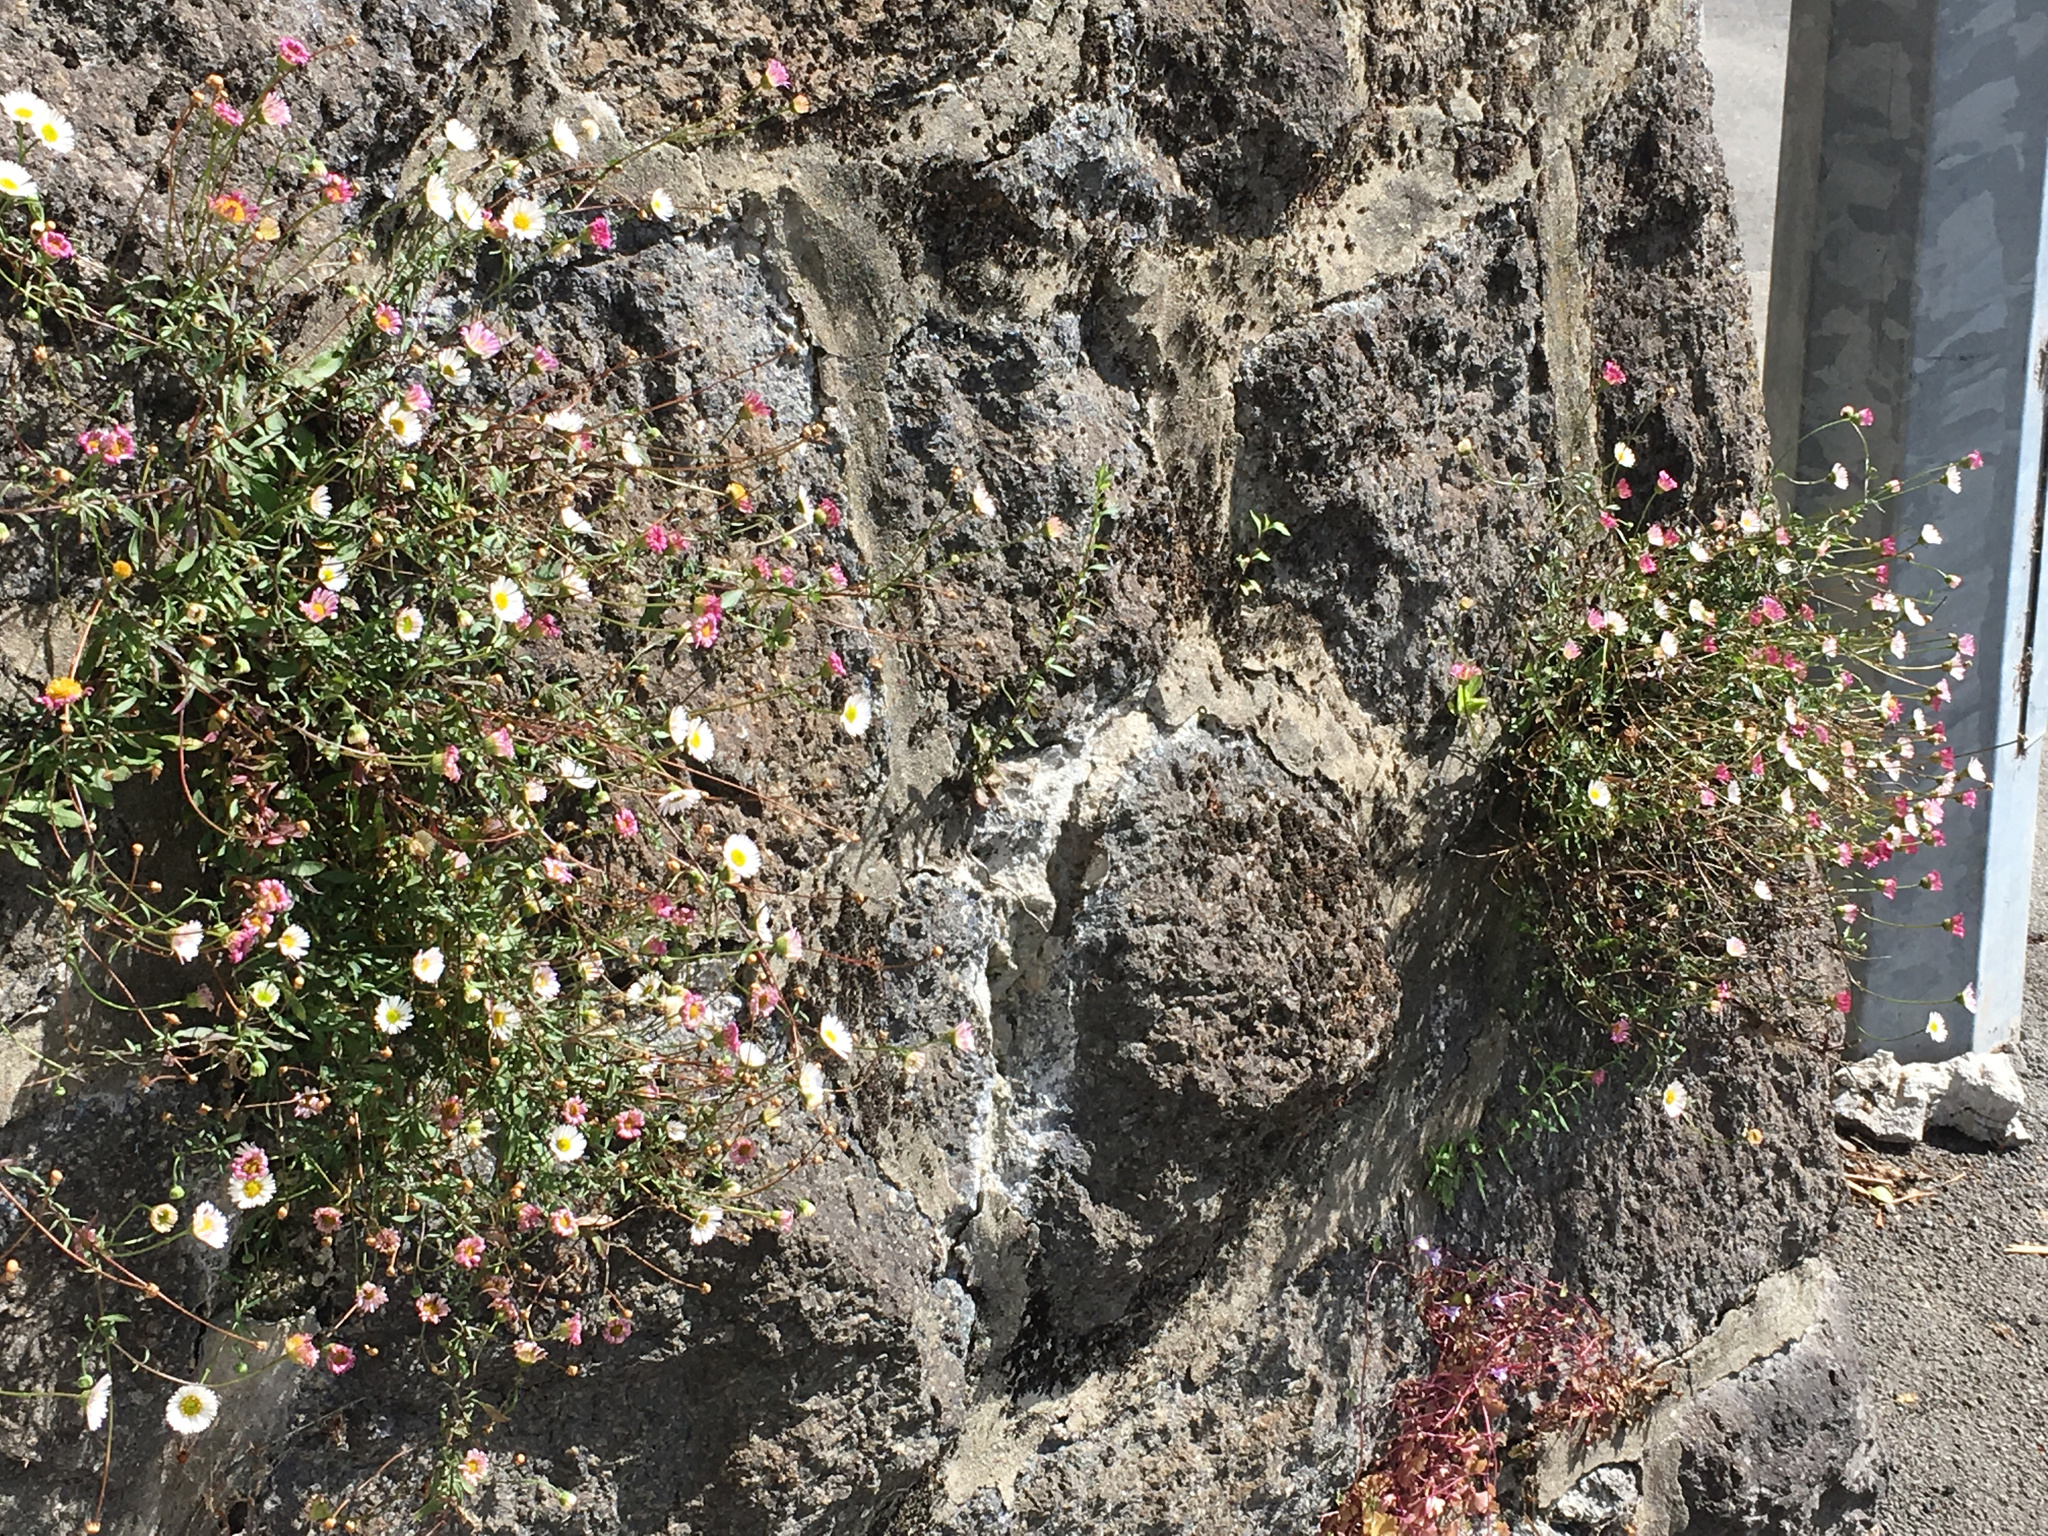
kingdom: Plantae
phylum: Tracheophyta
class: Magnoliopsida
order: Asterales
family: Asteraceae
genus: Erigeron
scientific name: Erigeron karvinskianus
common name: Mexican fleabane
